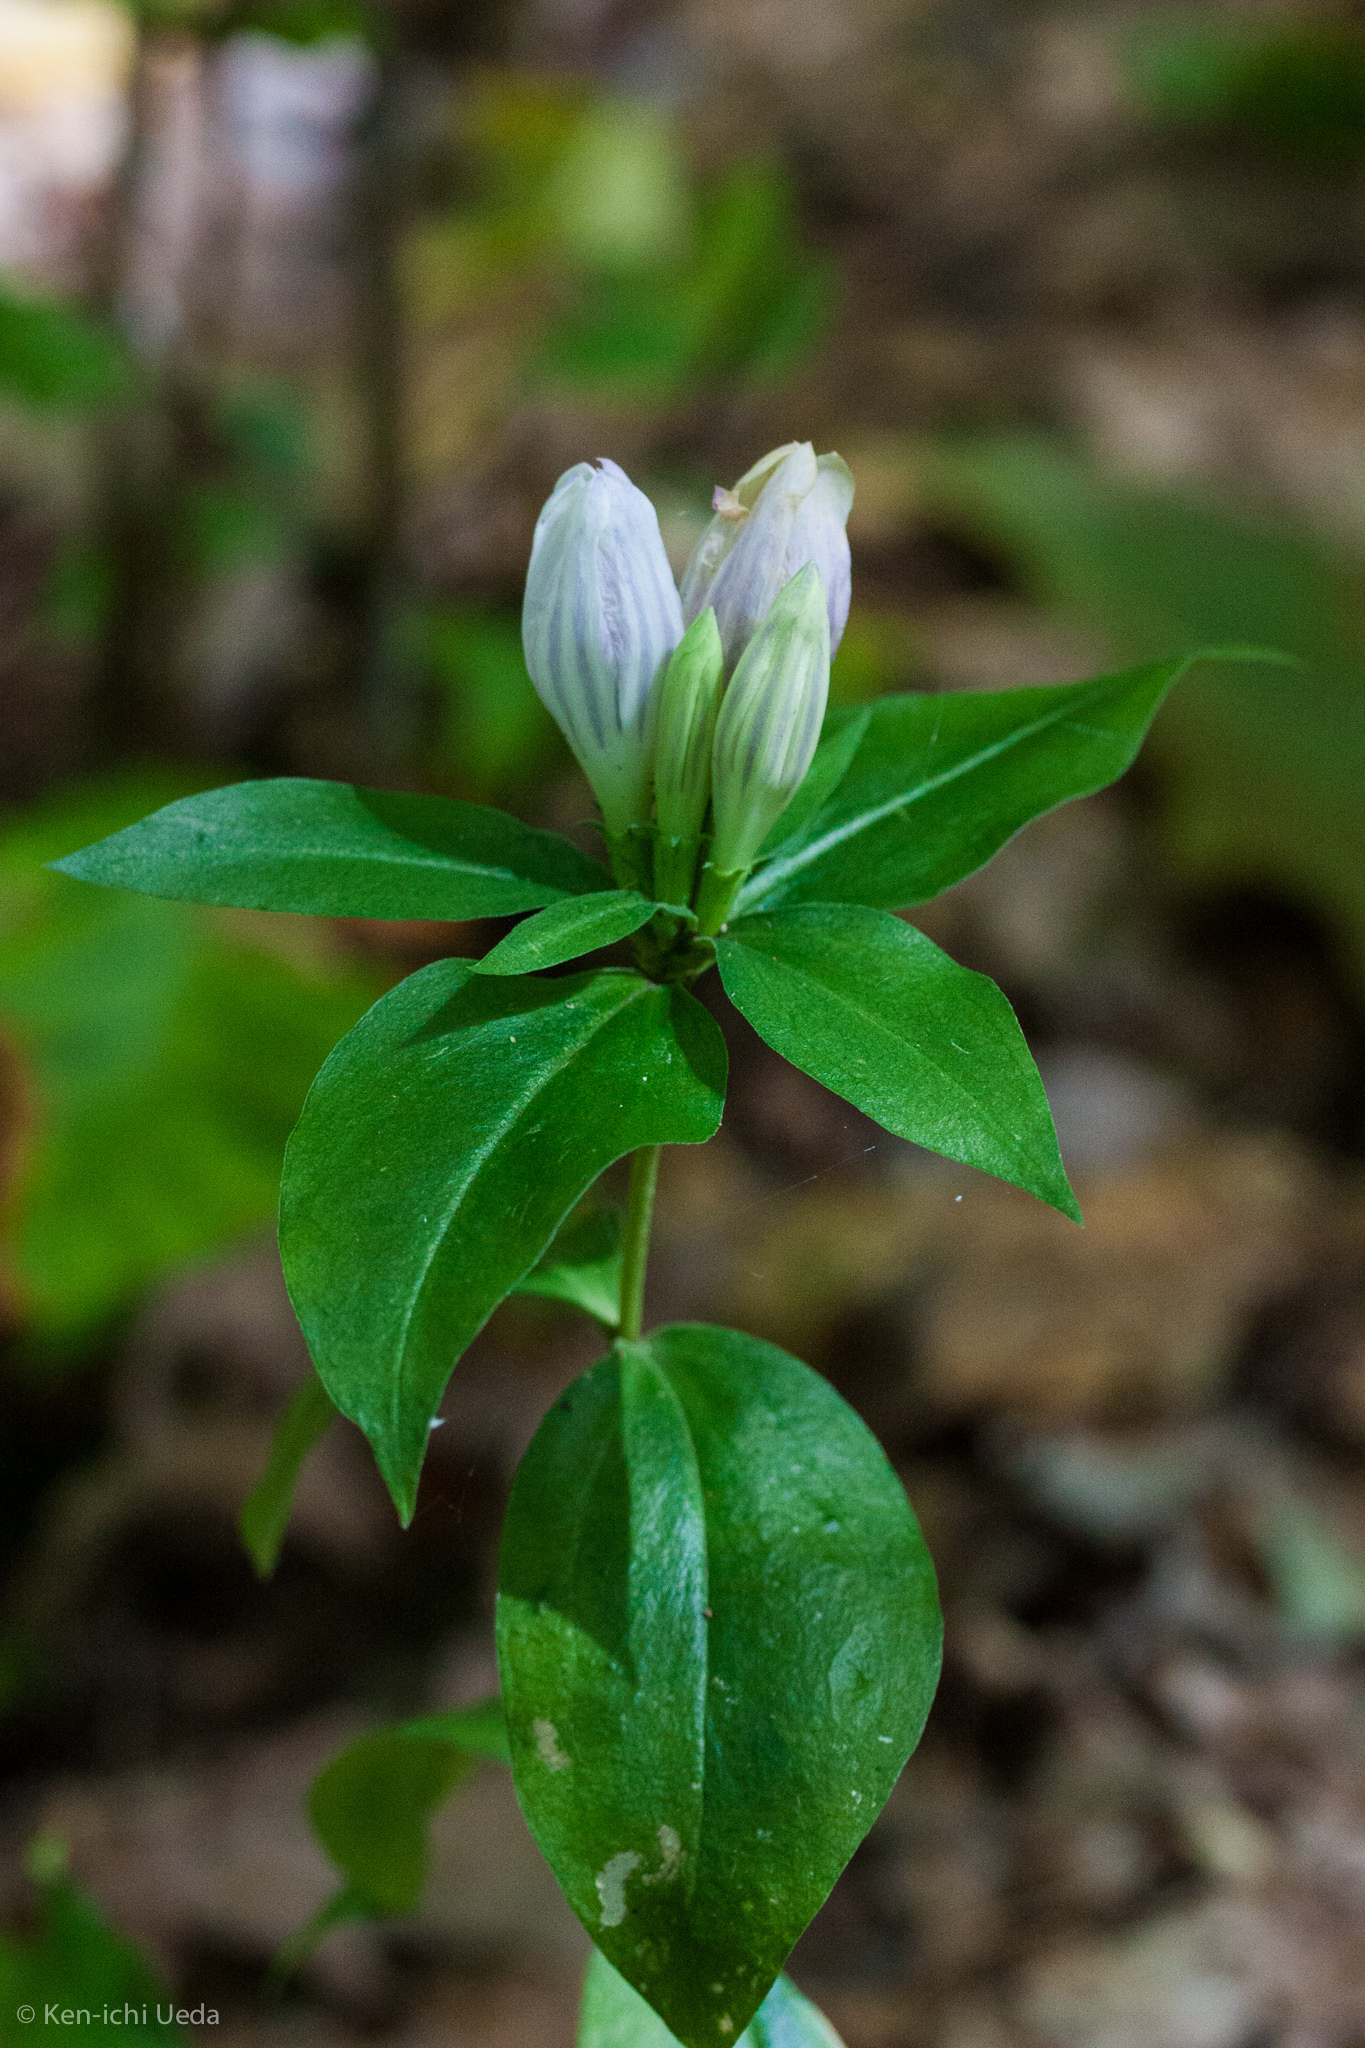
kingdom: Plantae
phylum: Tracheophyta
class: Magnoliopsida
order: Gentianales
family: Gentianaceae
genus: Gentiana
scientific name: Gentiana decora
